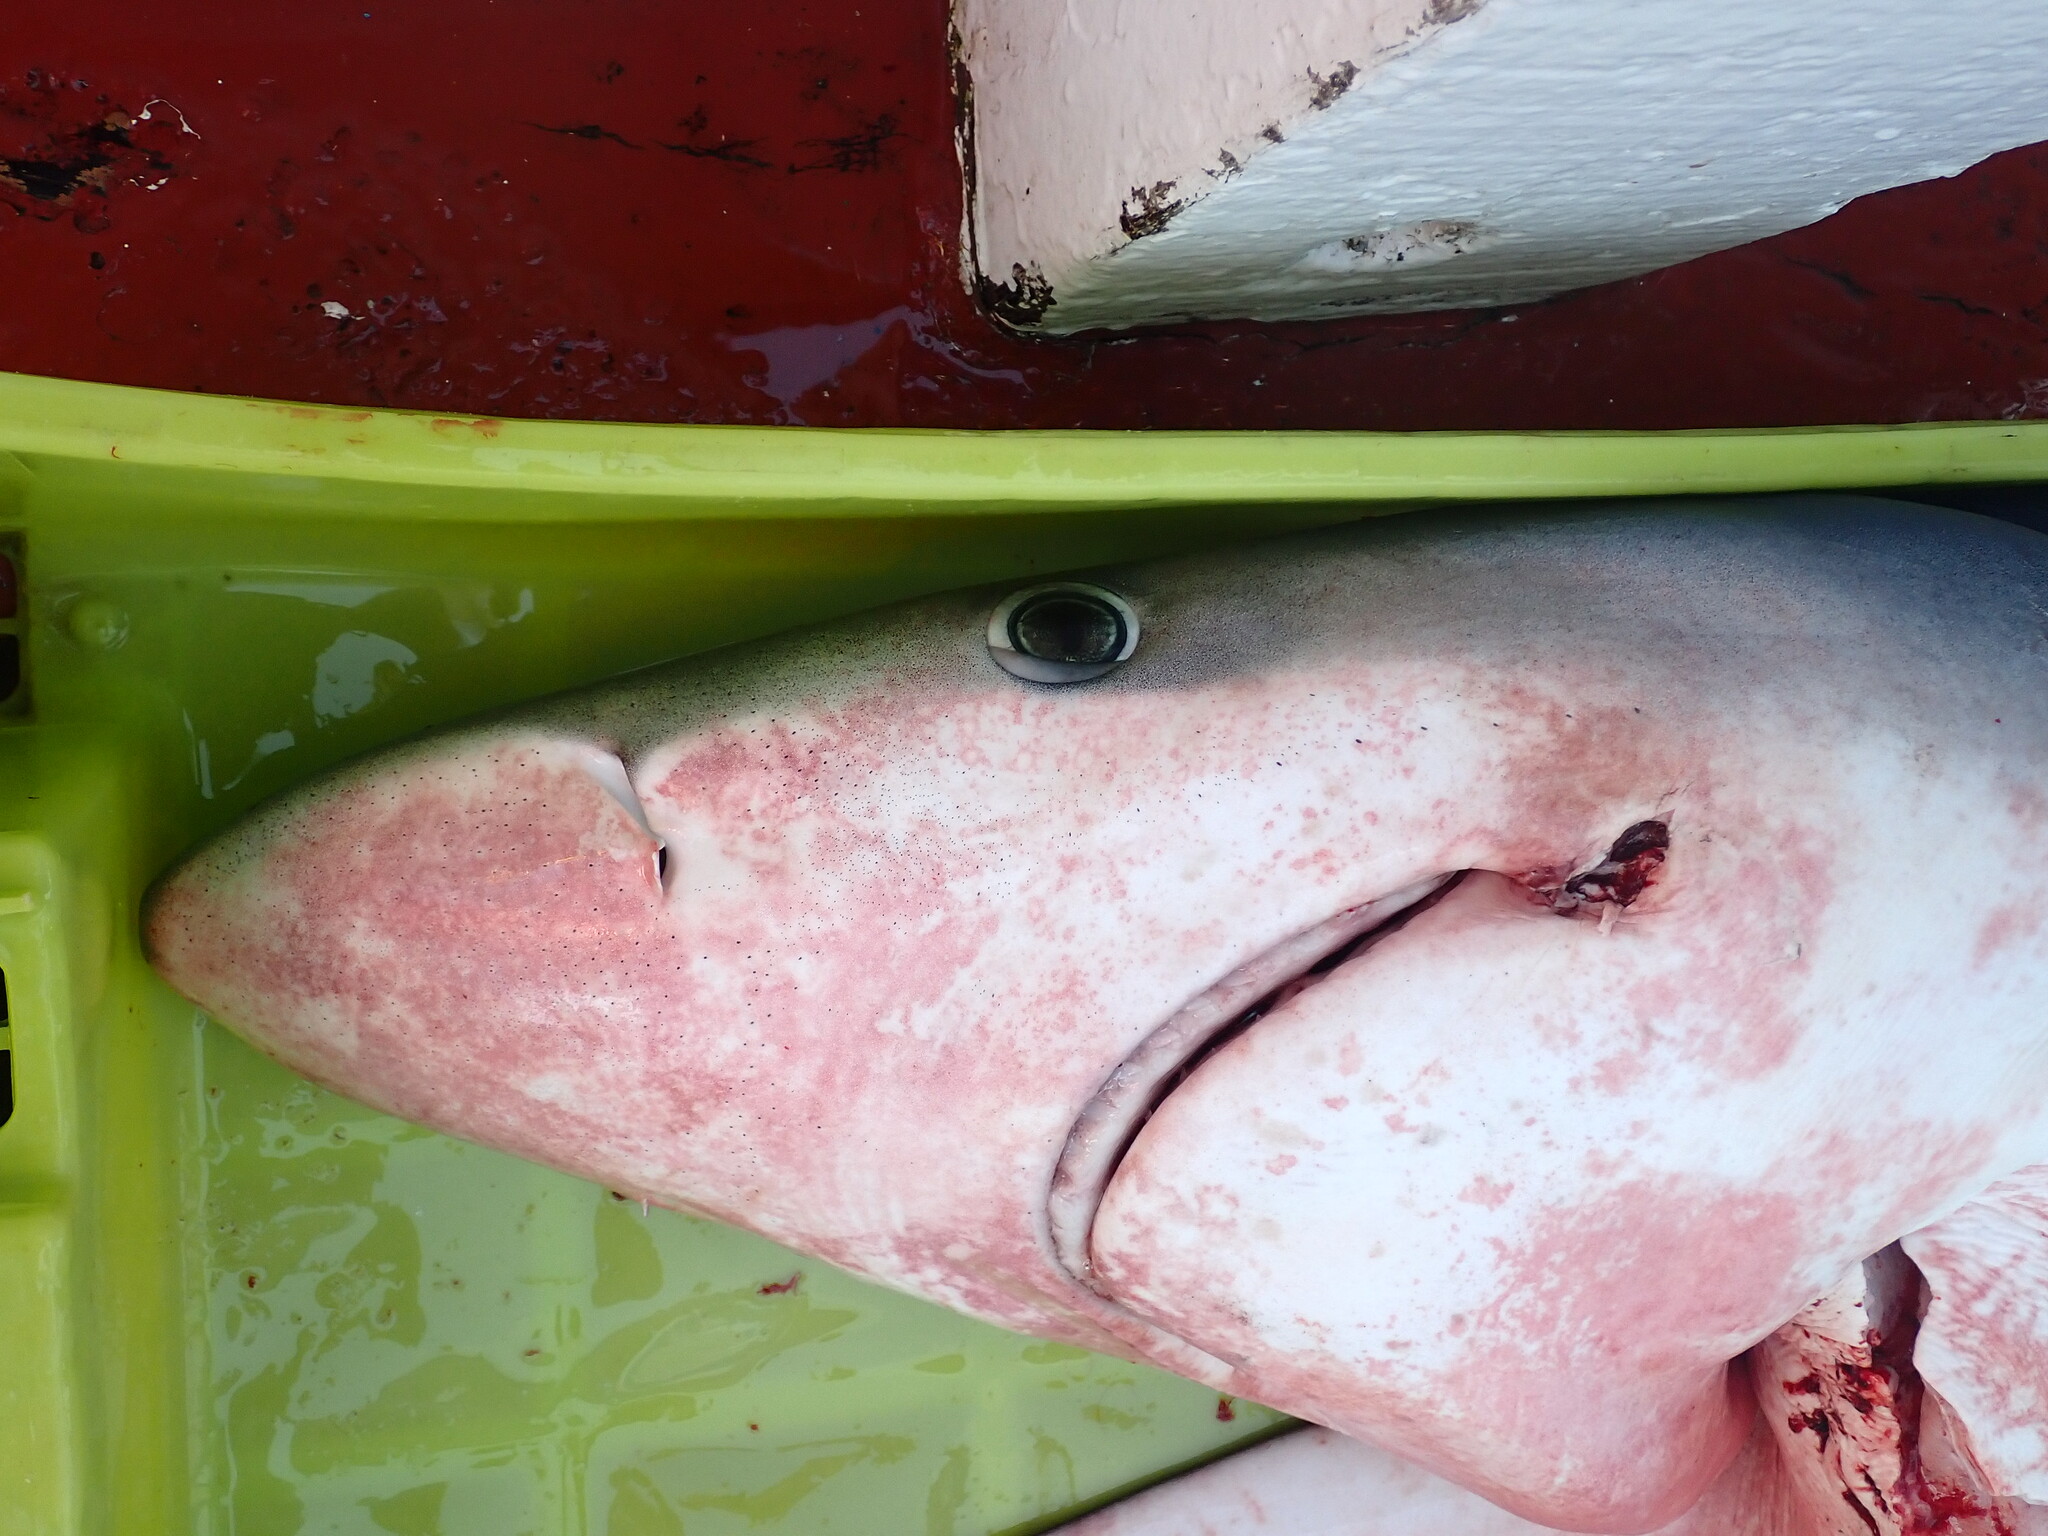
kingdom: Animalia
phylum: Chordata
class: Elasmobranchii
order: Carcharhiniformes
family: Carcharhinidae
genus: Prionace
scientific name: Prionace glauca
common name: Blue shark
